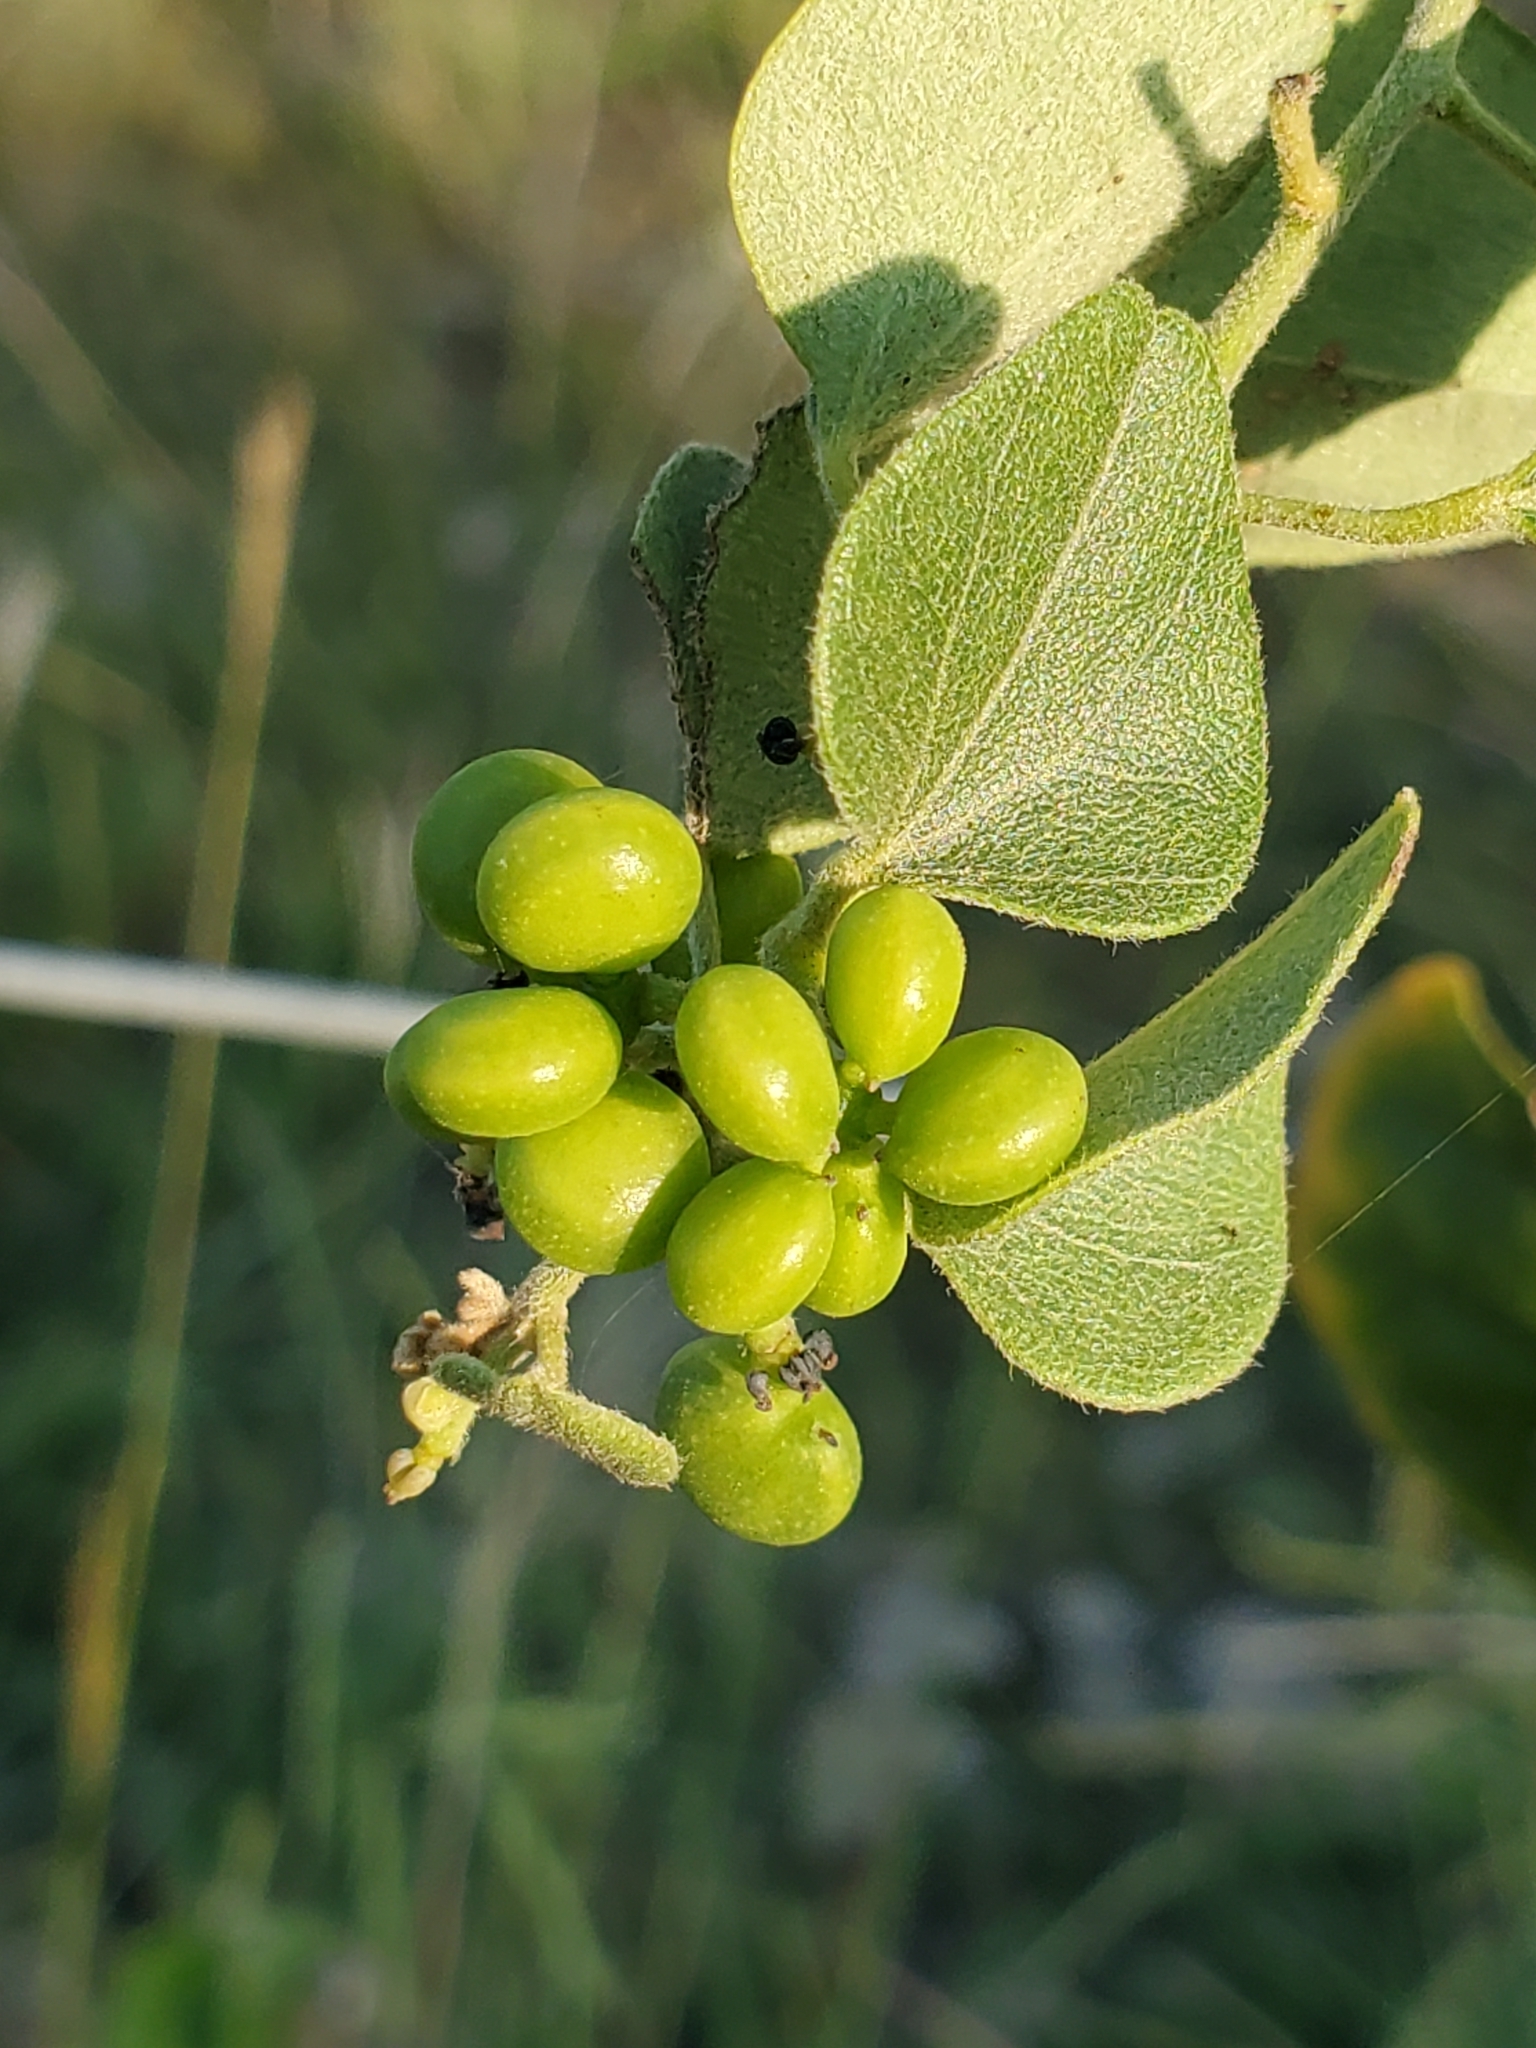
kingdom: Plantae
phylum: Tracheophyta
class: Magnoliopsida
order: Ranunculales
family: Menispermaceae
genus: Cocculus
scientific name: Cocculus carolinus
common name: Carolina moonseed
